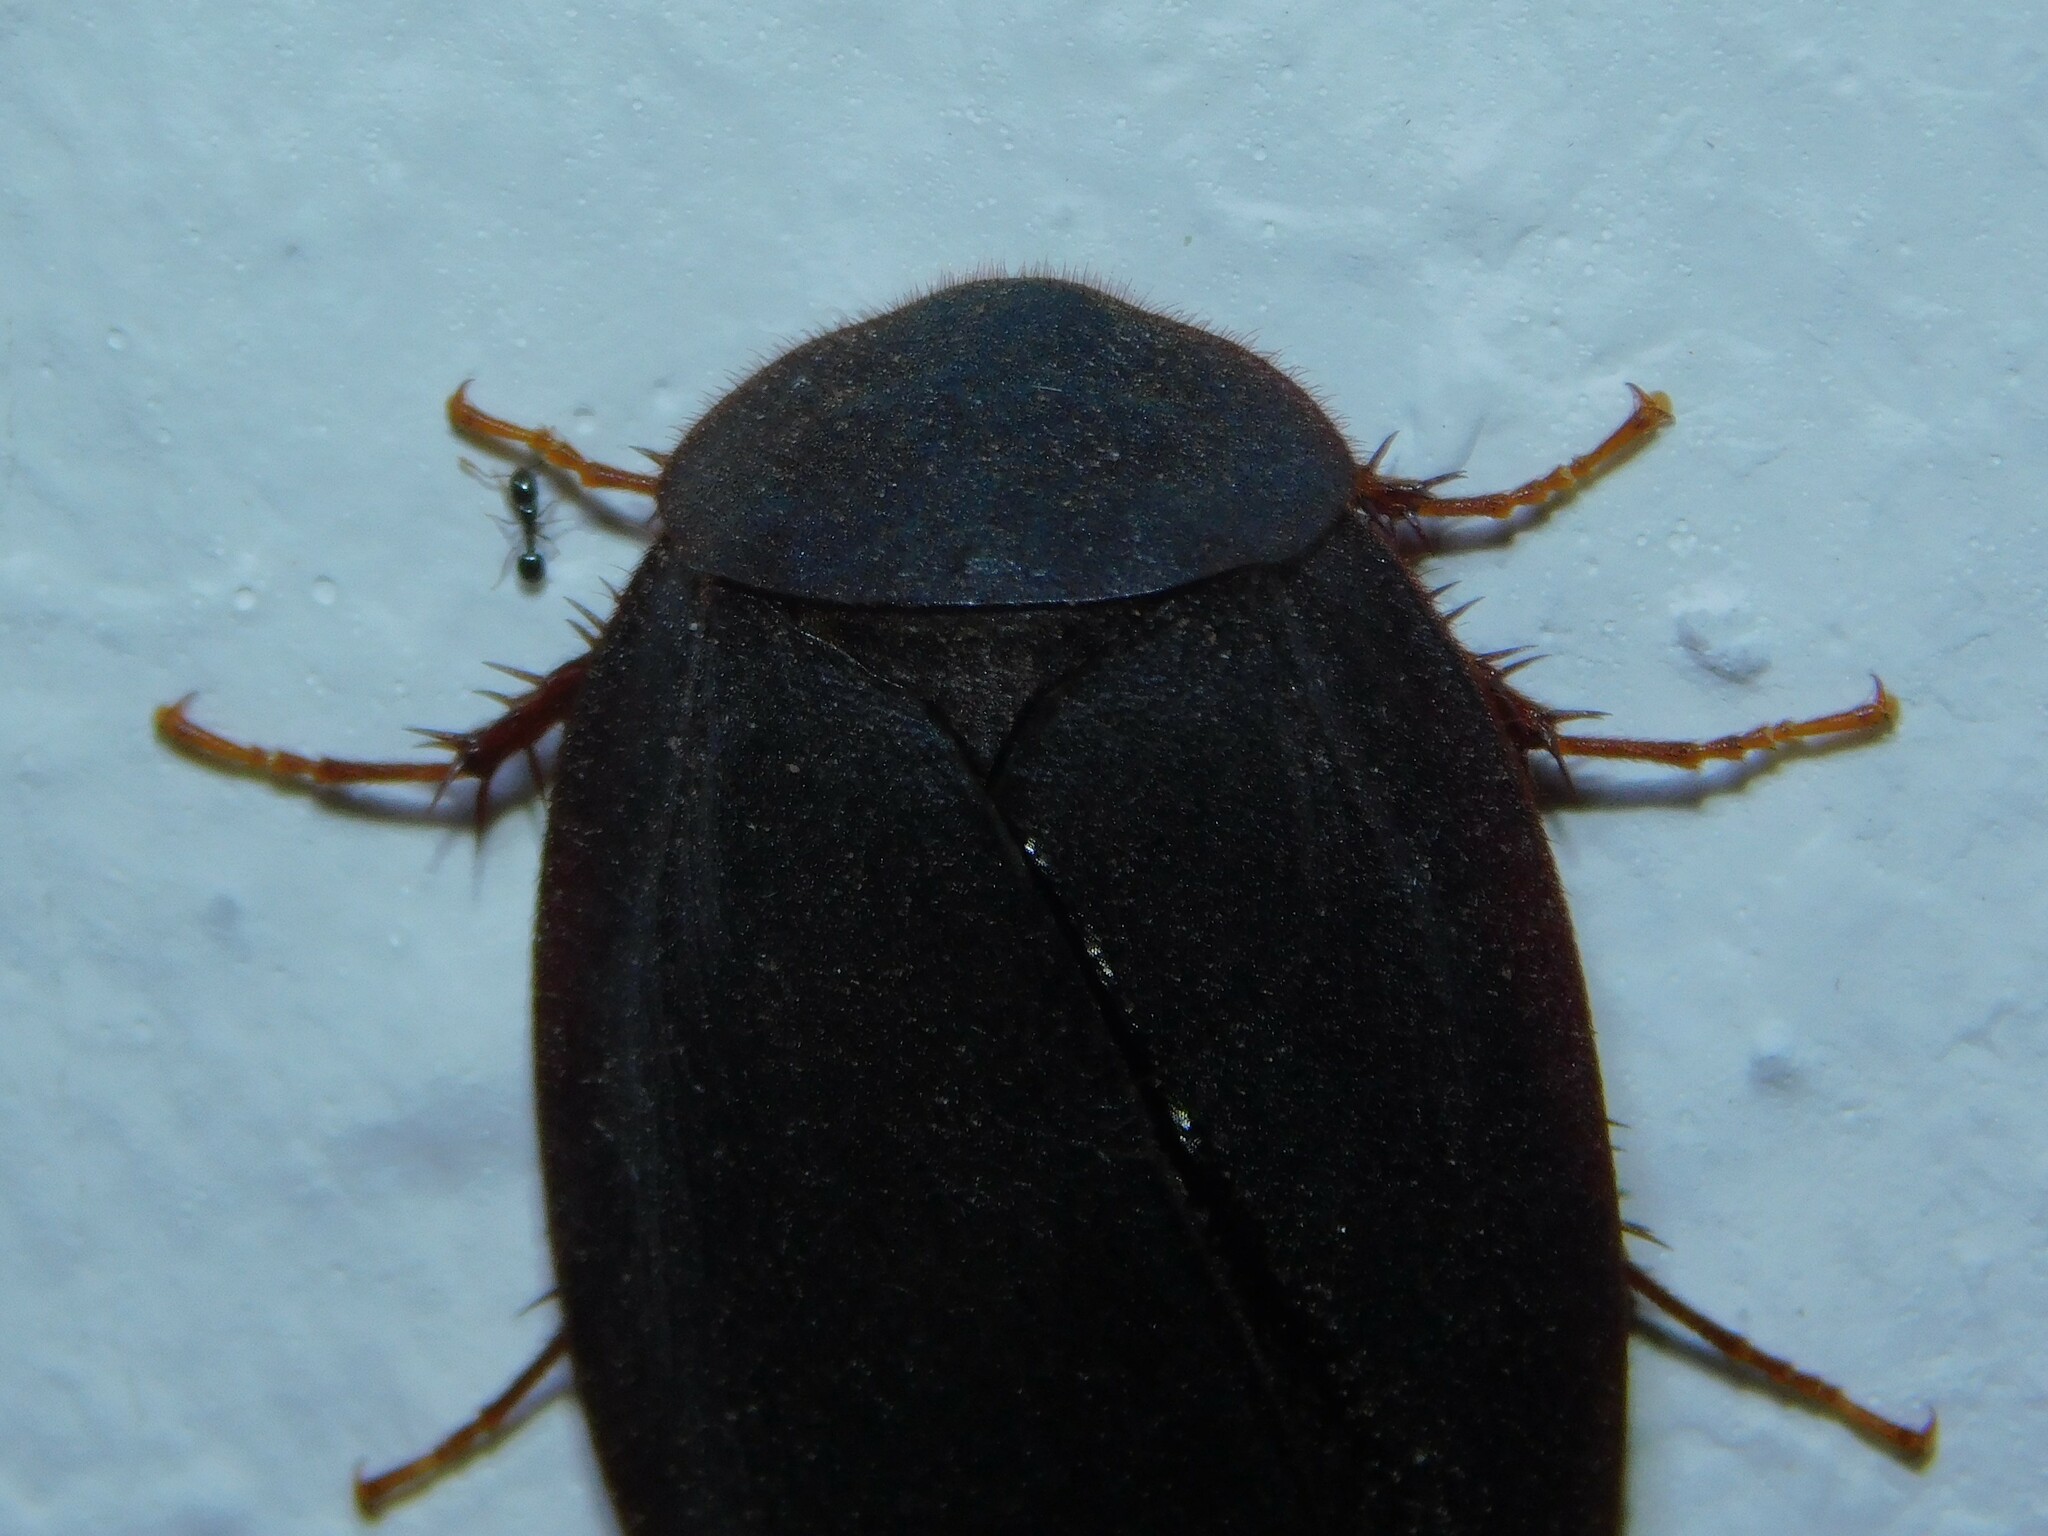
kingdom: Animalia
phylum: Arthropoda
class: Insecta
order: Blattodea
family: Corydiidae
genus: Ergaula
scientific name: Ergaula capensis
